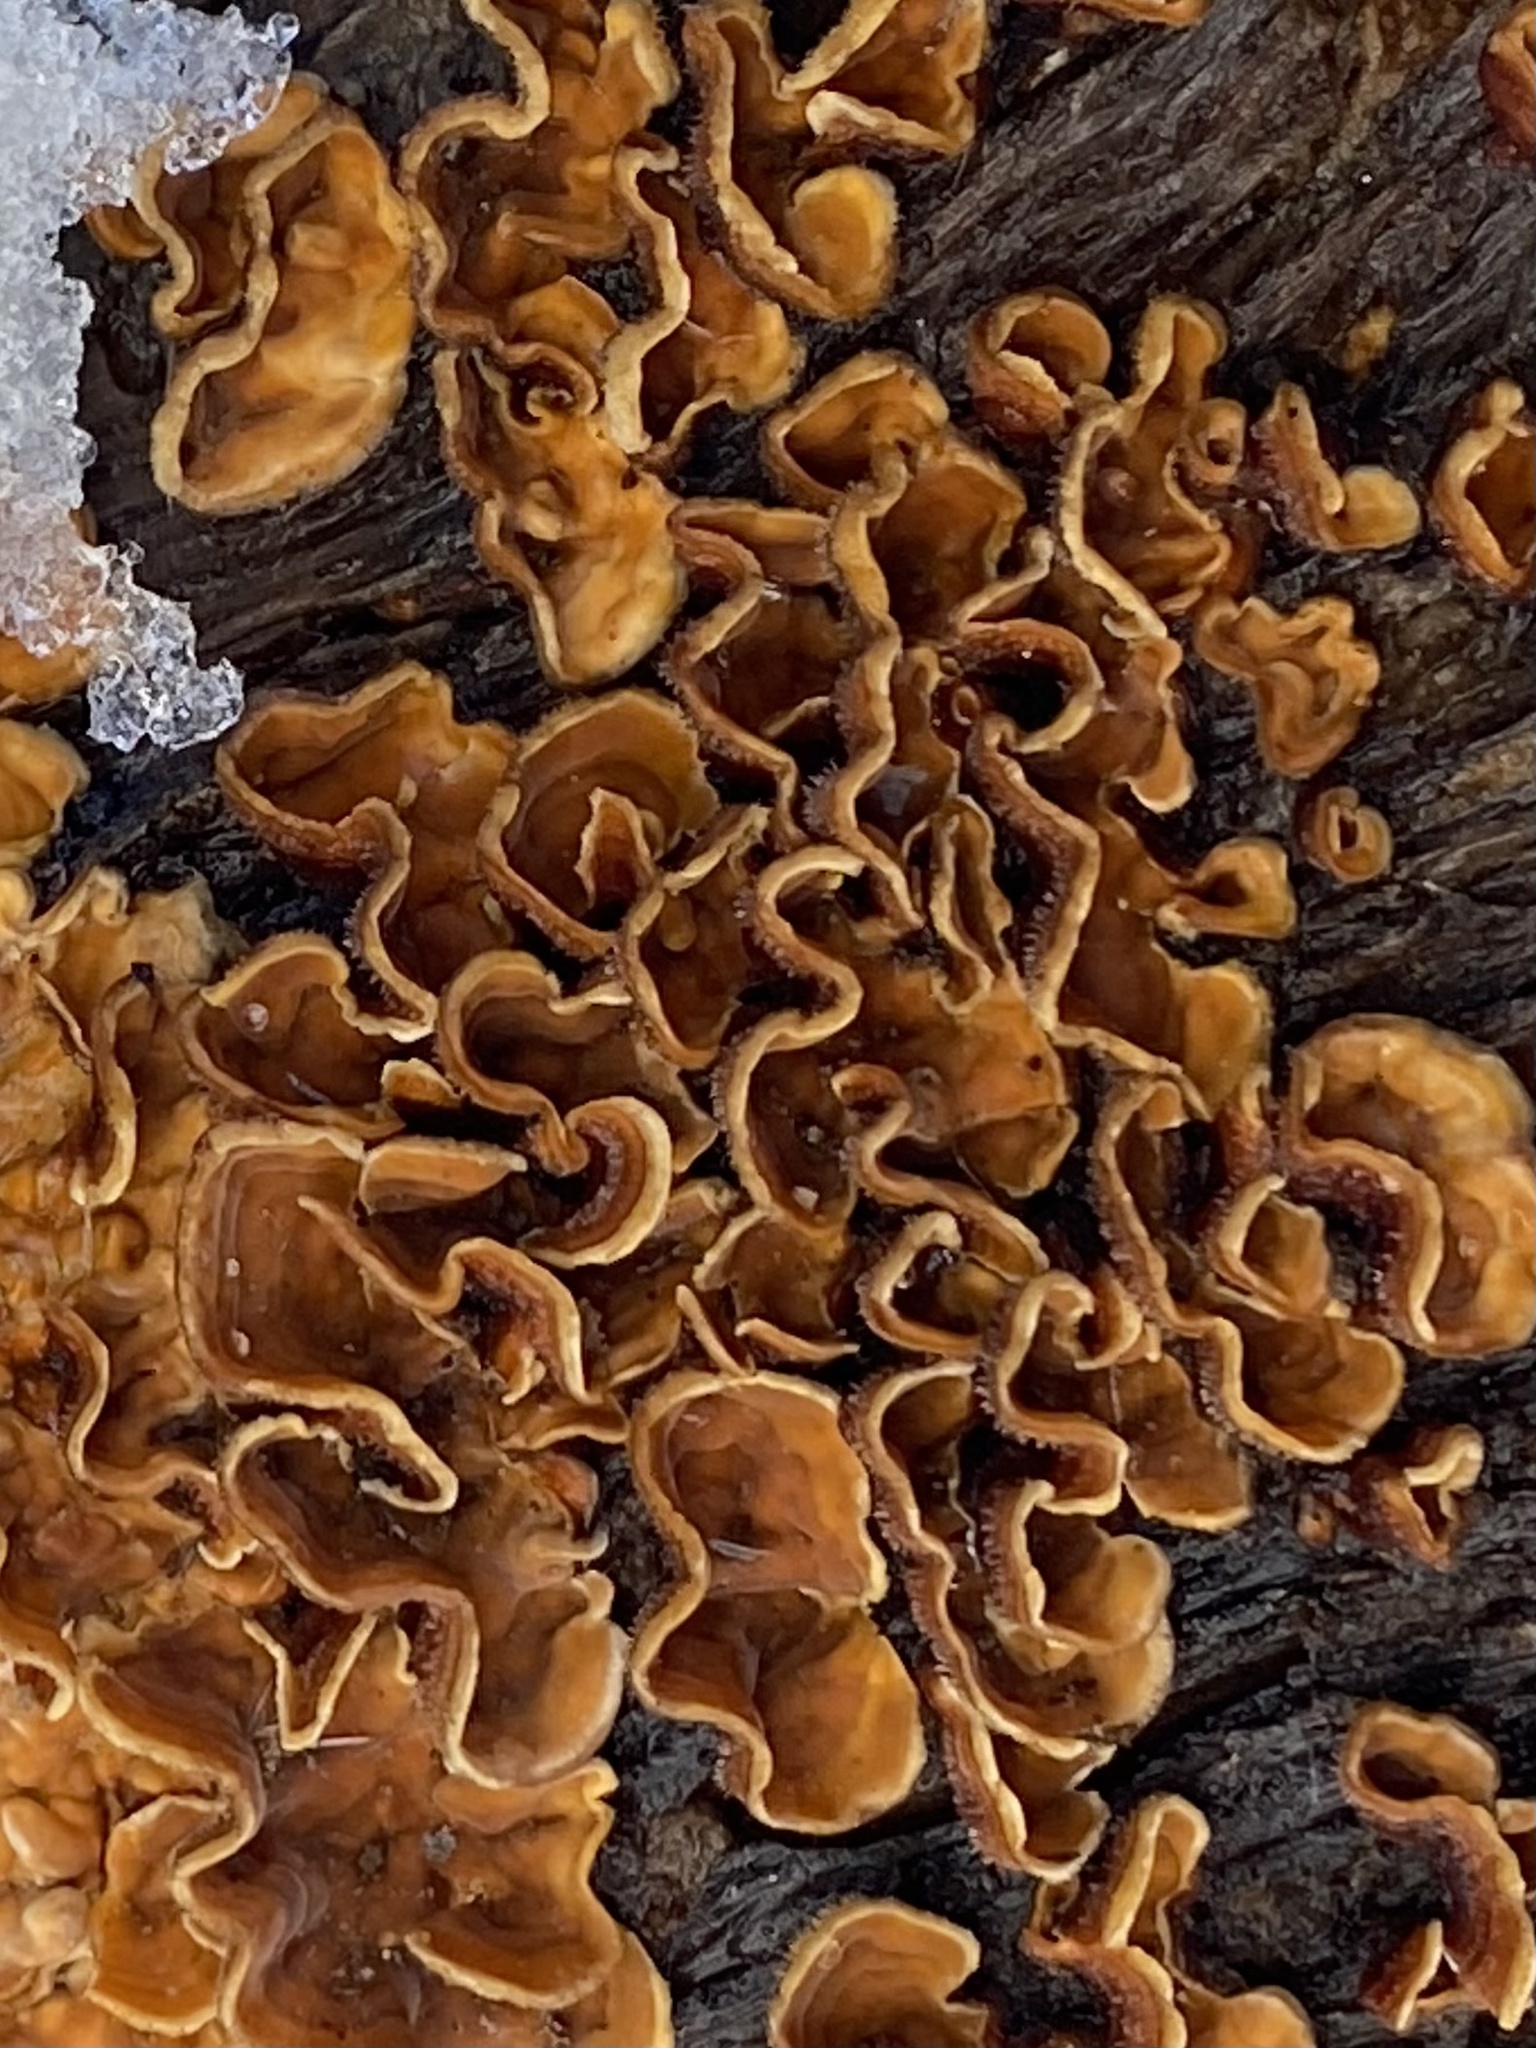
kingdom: Fungi
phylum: Basidiomycota
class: Agaricomycetes
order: Russulales
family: Stereaceae
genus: Stereum
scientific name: Stereum hirsutum
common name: Hairy curtain crust
